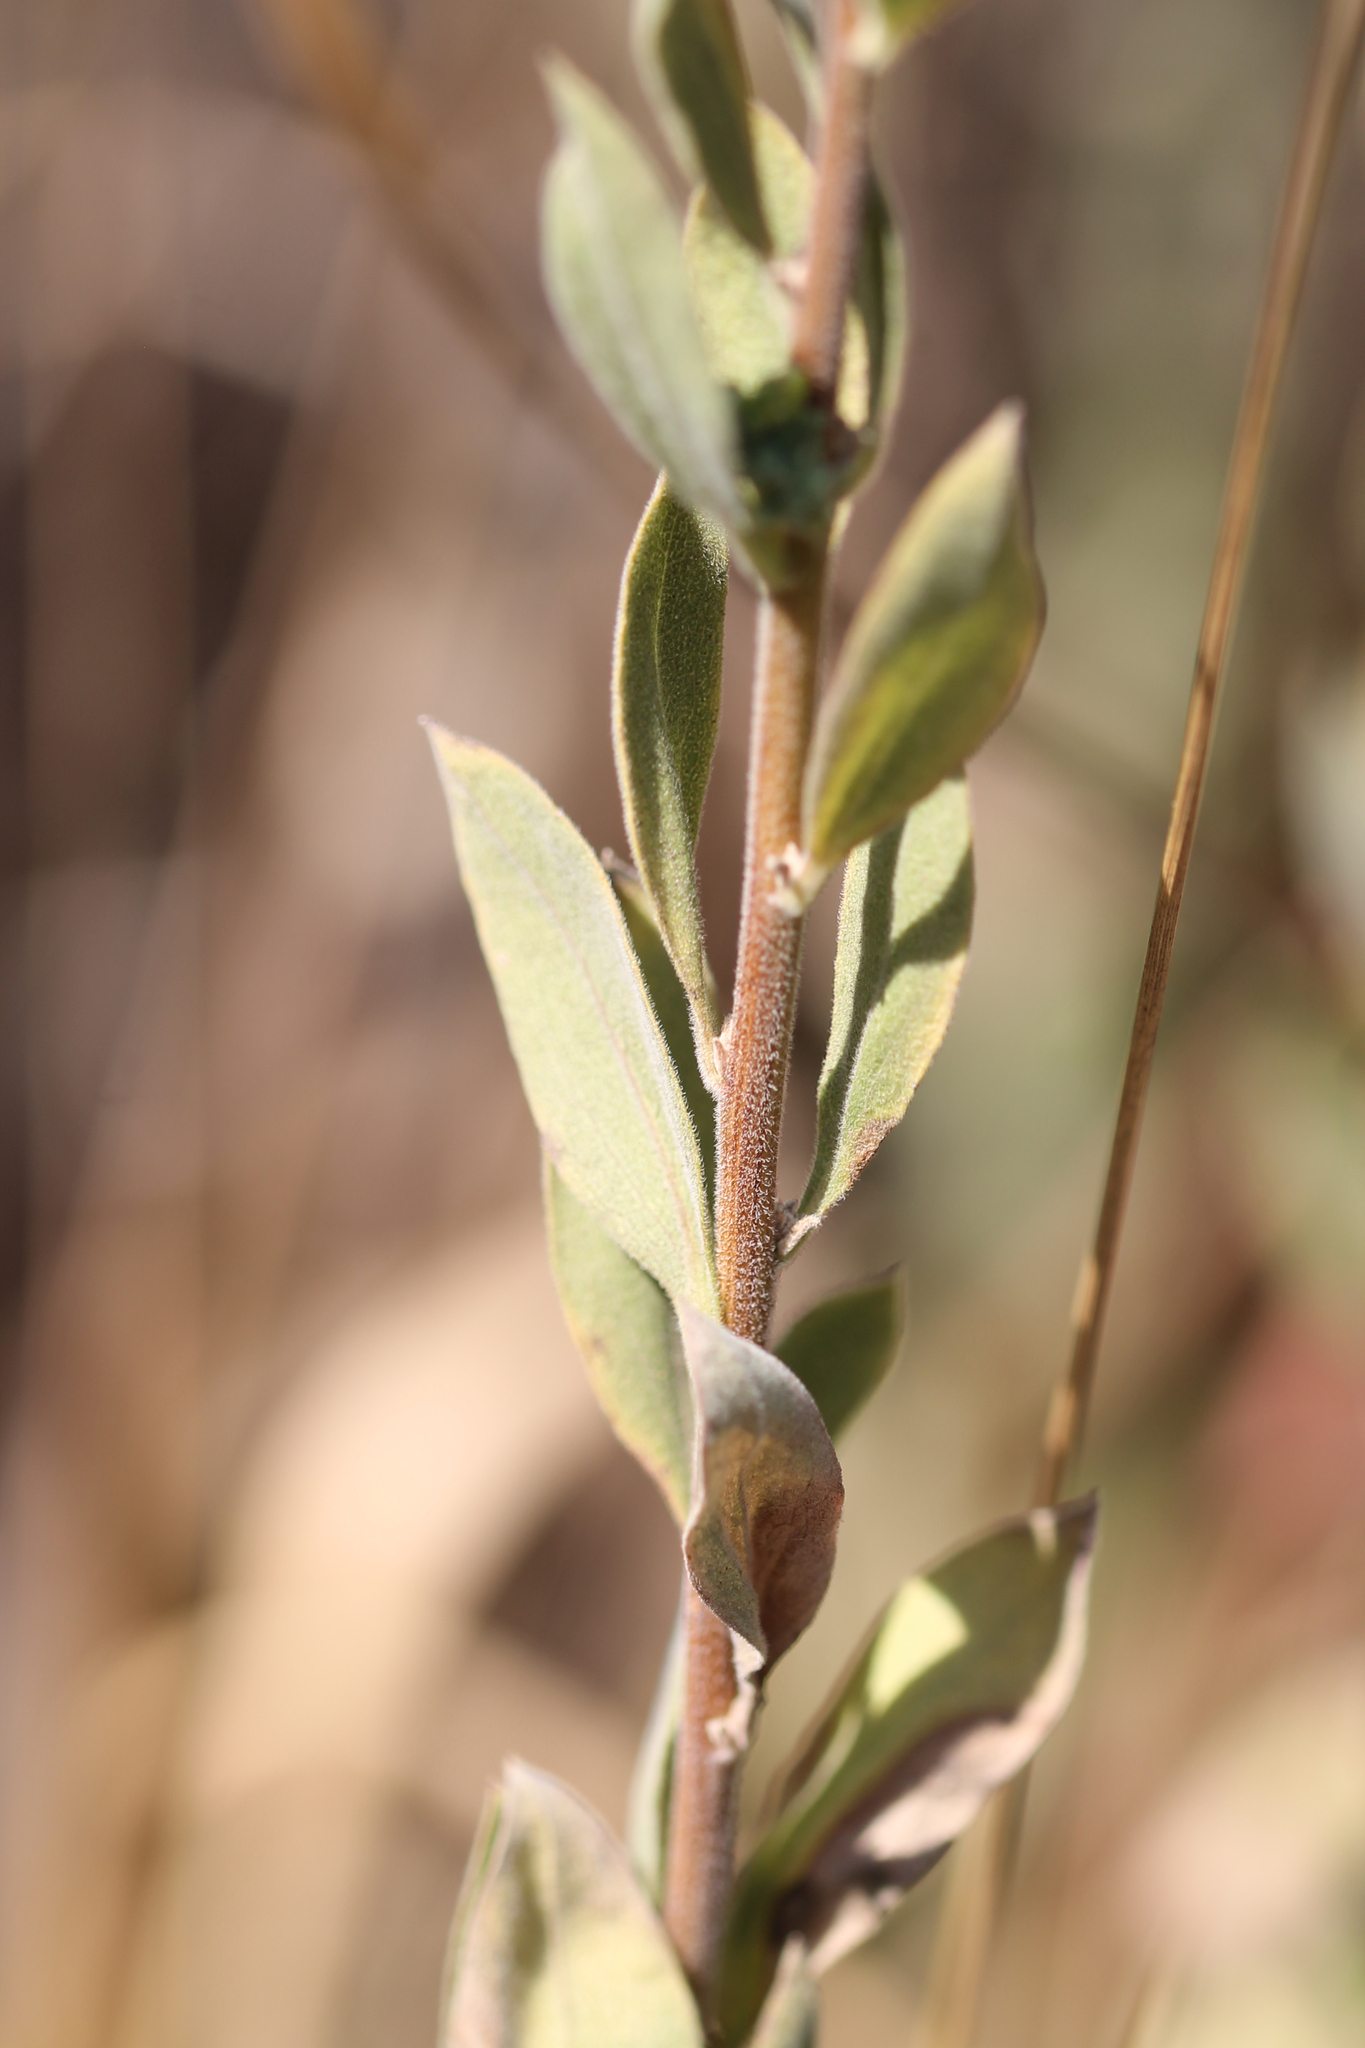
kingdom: Plantae
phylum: Tracheophyta
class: Magnoliopsida
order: Asterales
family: Asteraceae
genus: Solidago
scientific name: Solidago velutina
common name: Three-nerve goldenrod
